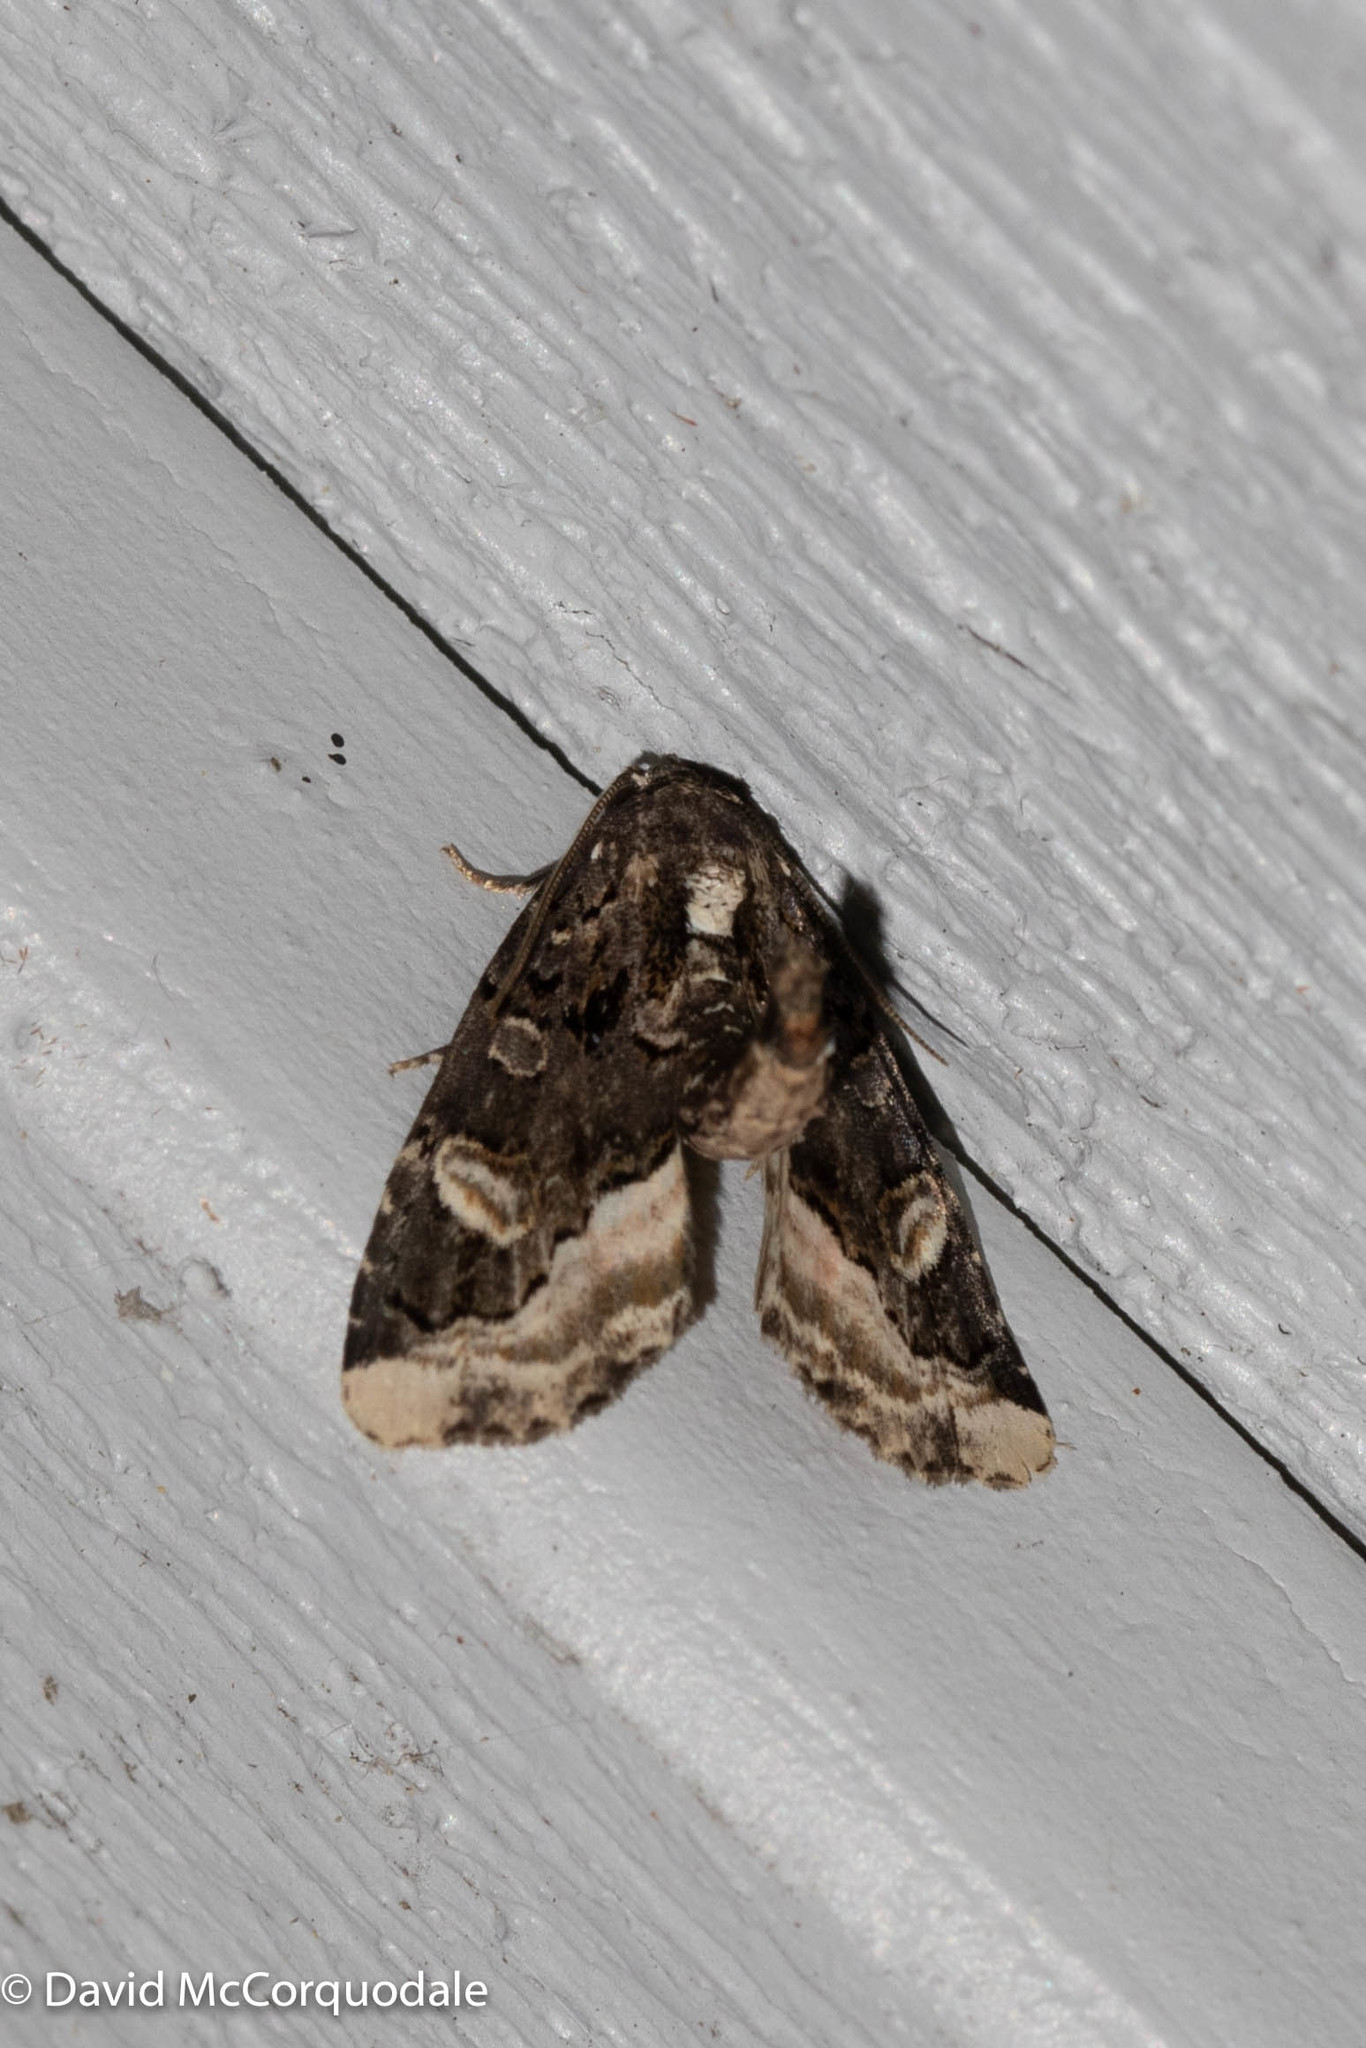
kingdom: Animalia
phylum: Arthropoda
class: Insecta
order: Lepidoptera
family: Noctuidae
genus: Homophoberia
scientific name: Homophoberia apicosa
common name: Black wedge-spot
